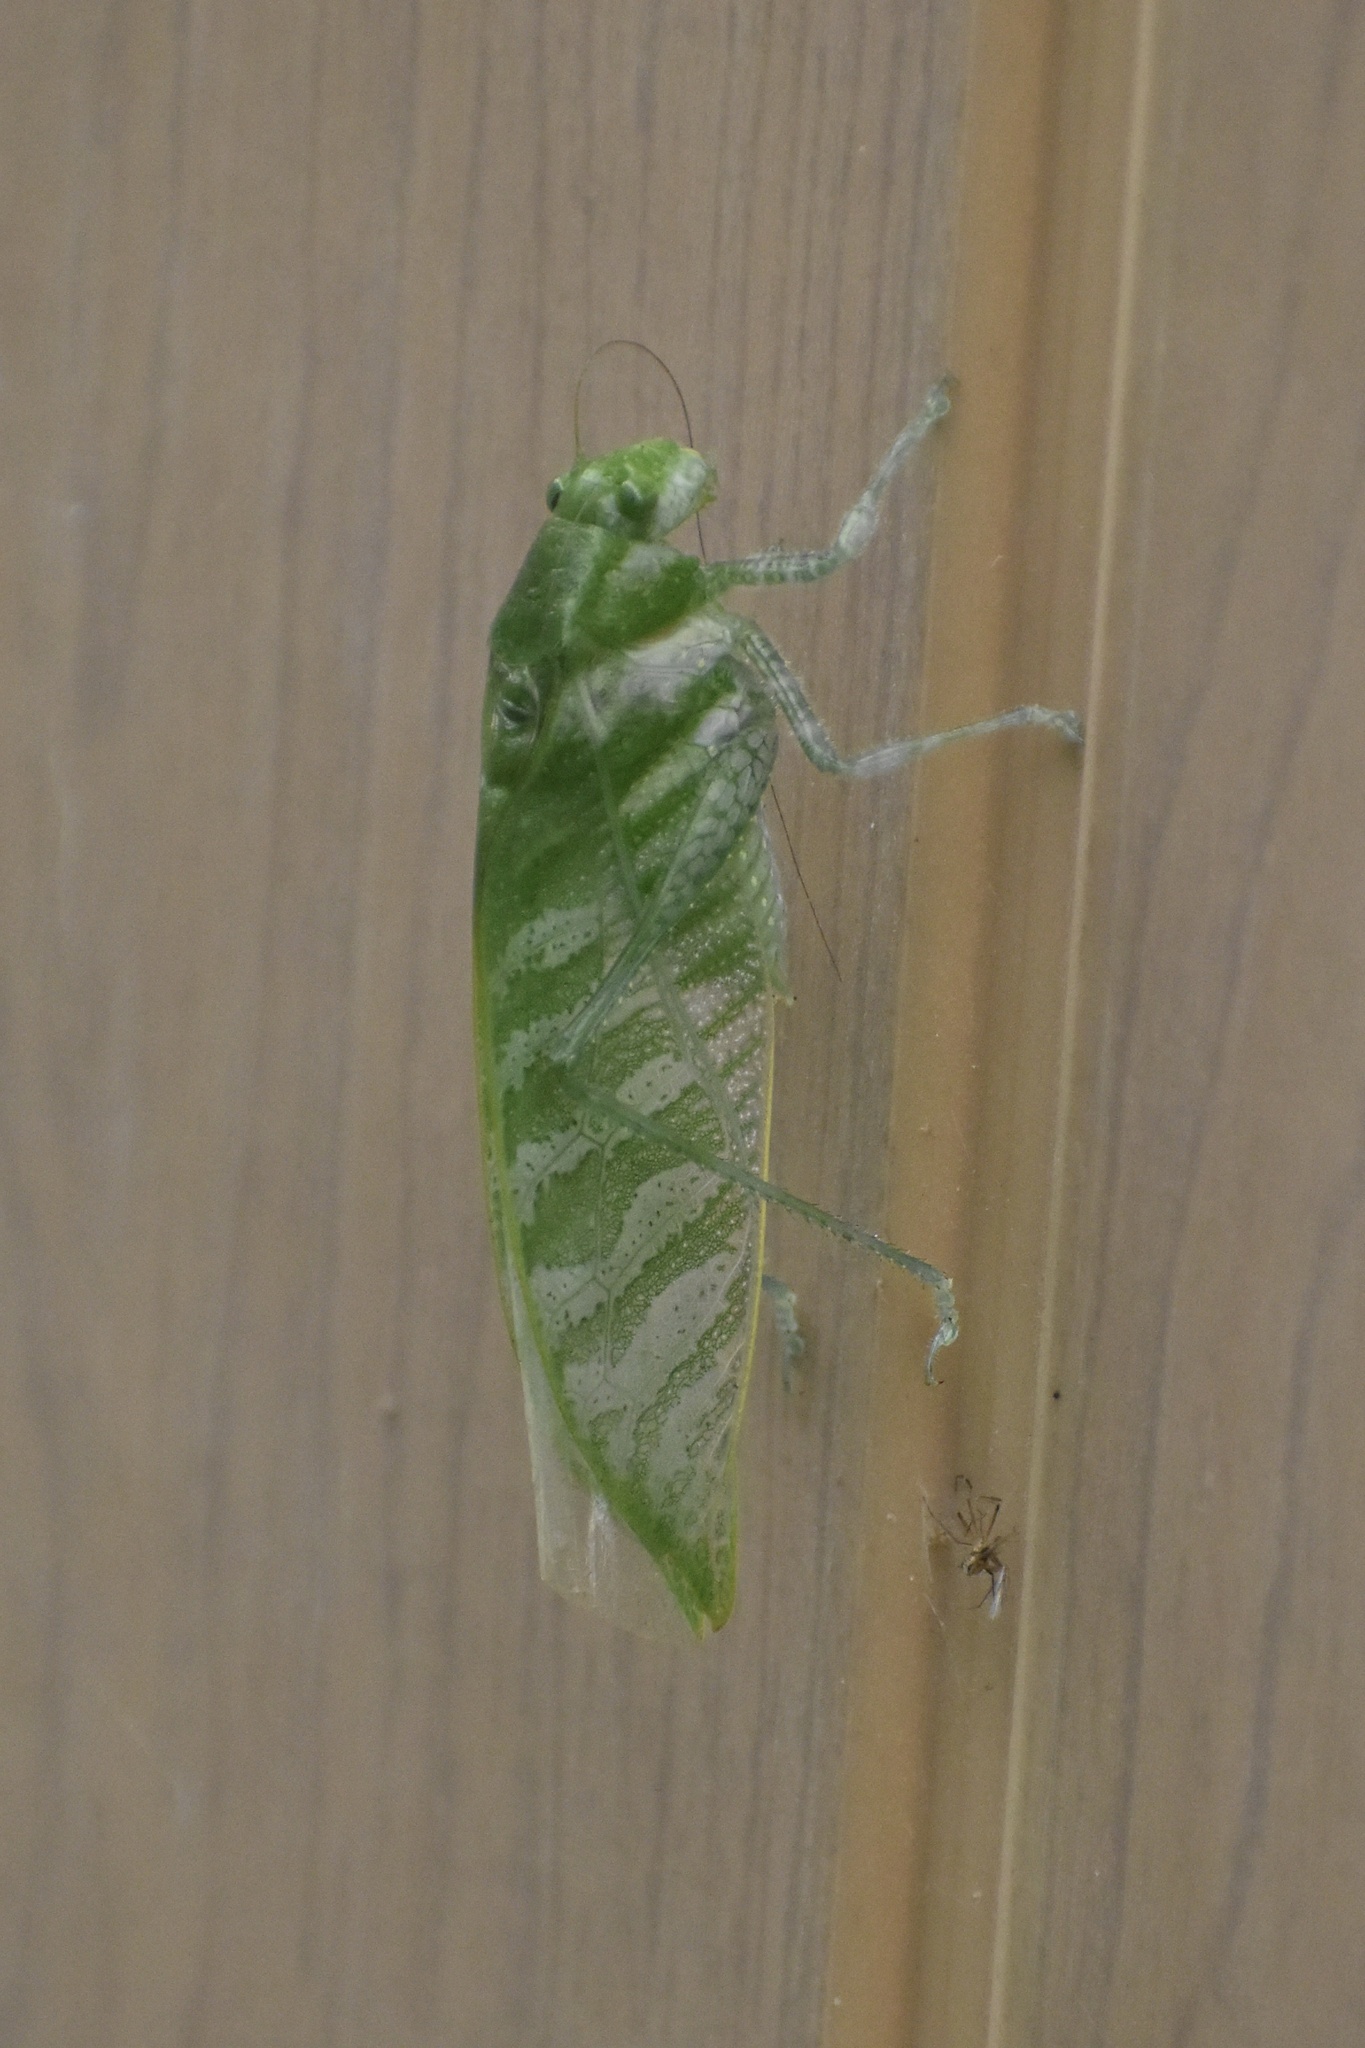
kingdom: Animalia
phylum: Arthropoda
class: Insecta
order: Orthoptera
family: Tettigoniidae
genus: Anapolisia
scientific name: Anapolisia colossea
